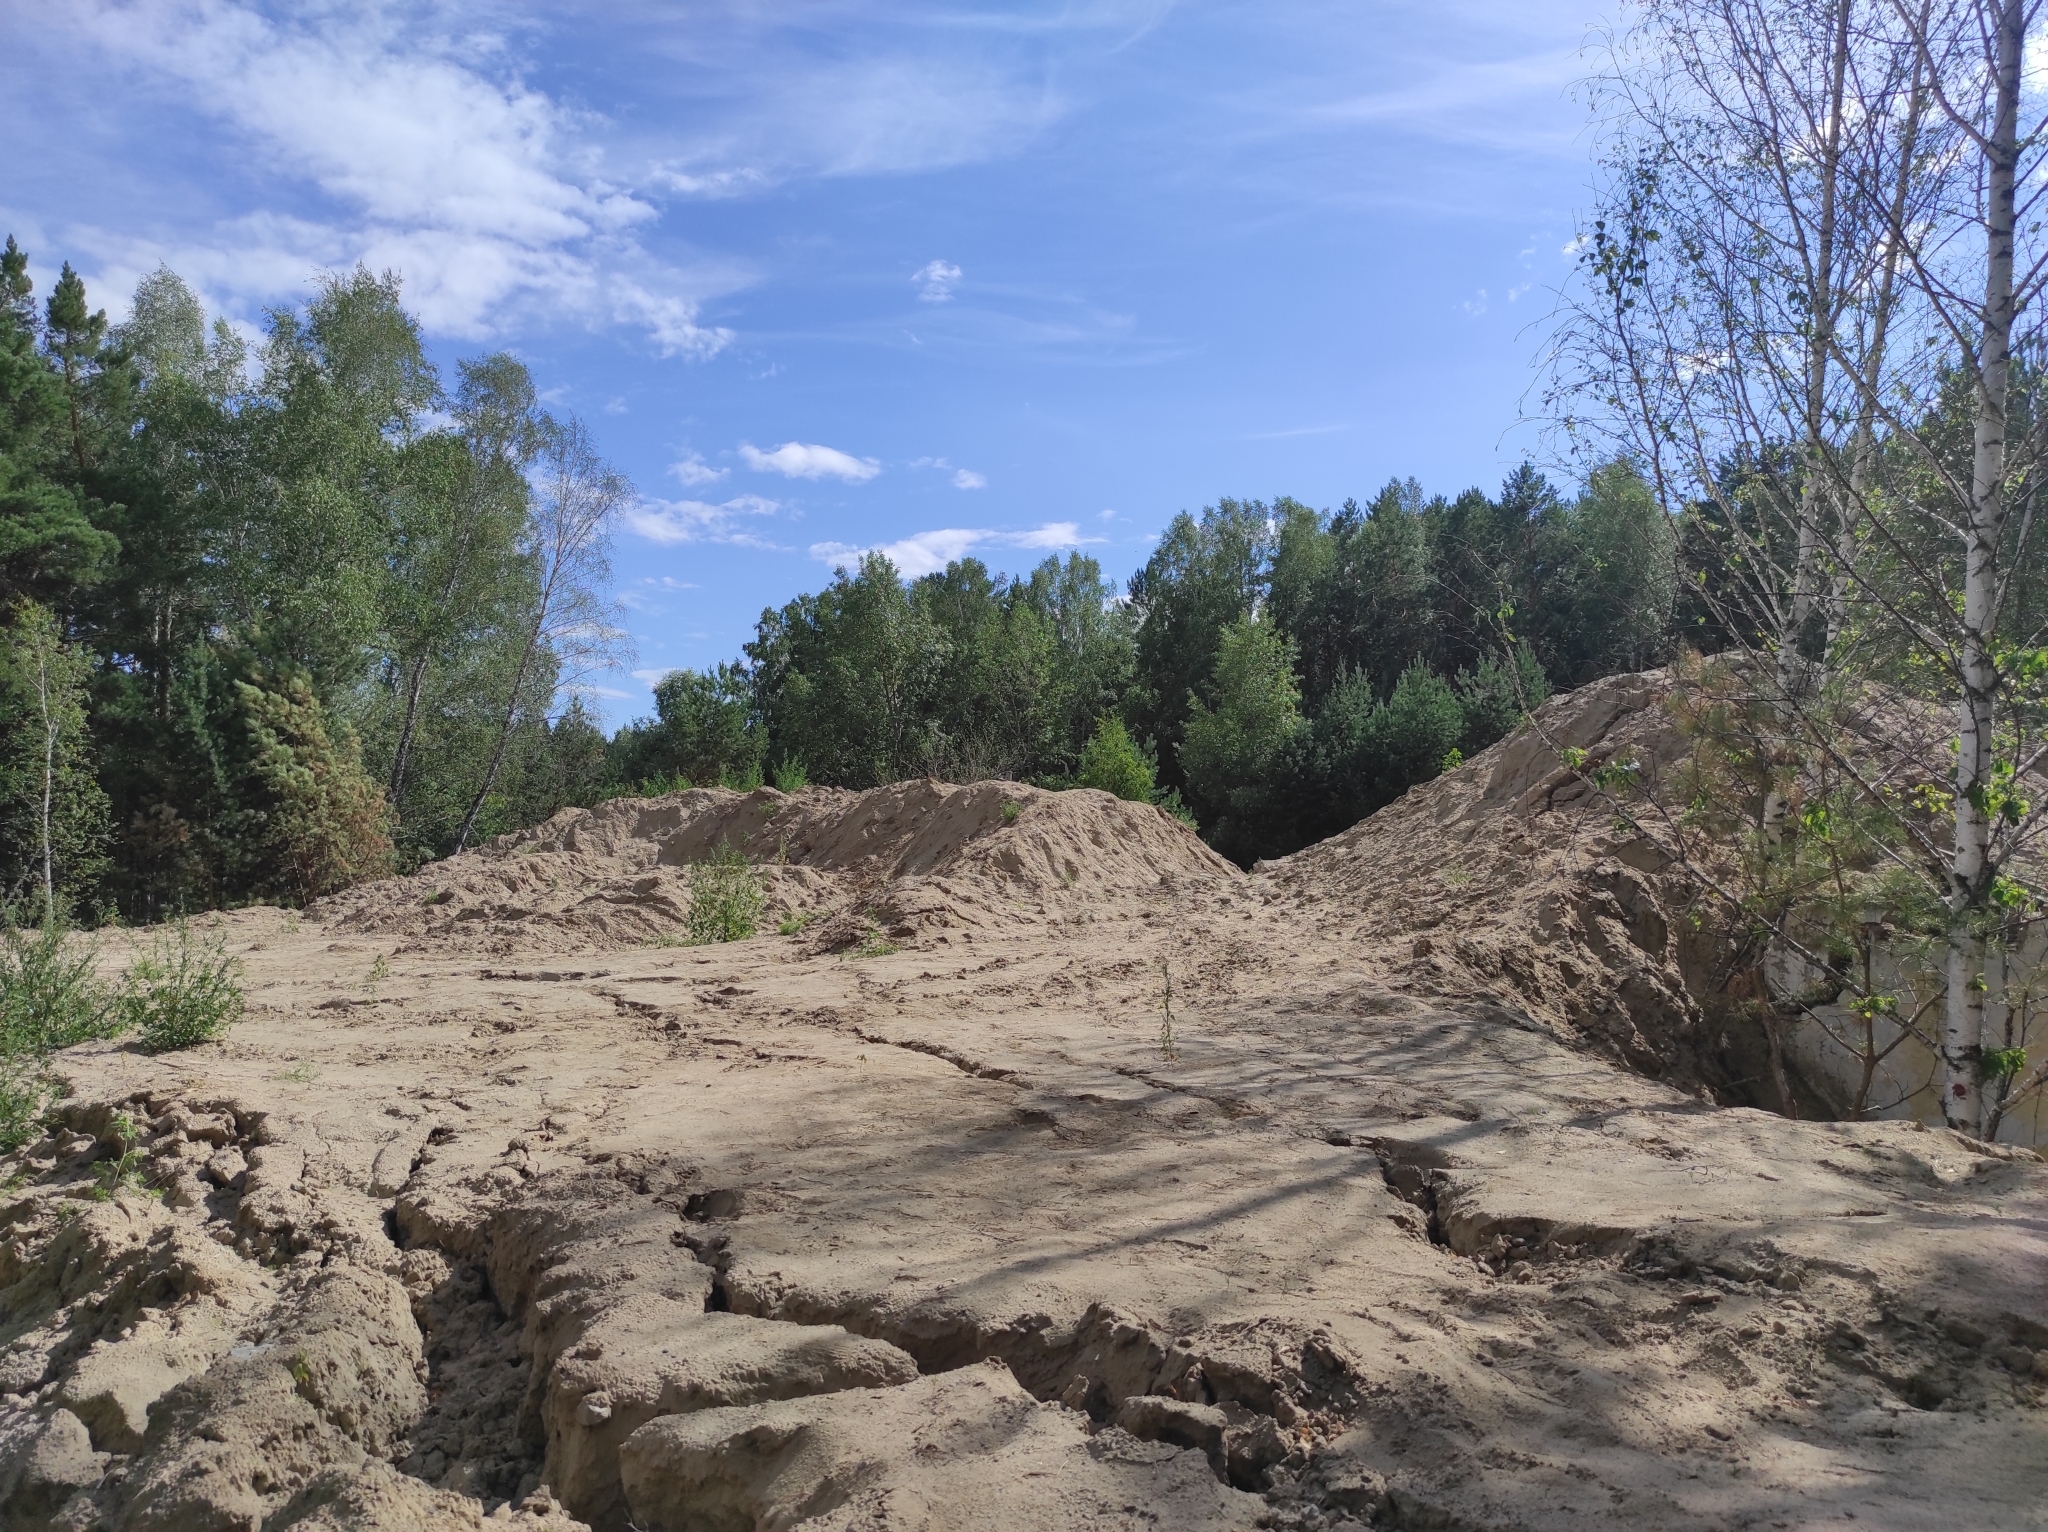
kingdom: Plantae
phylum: Tracheophyta
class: Pinopsida
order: Pinales
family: Pinaceae
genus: Pinus
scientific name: Pinus sylvestris
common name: Scots pine
